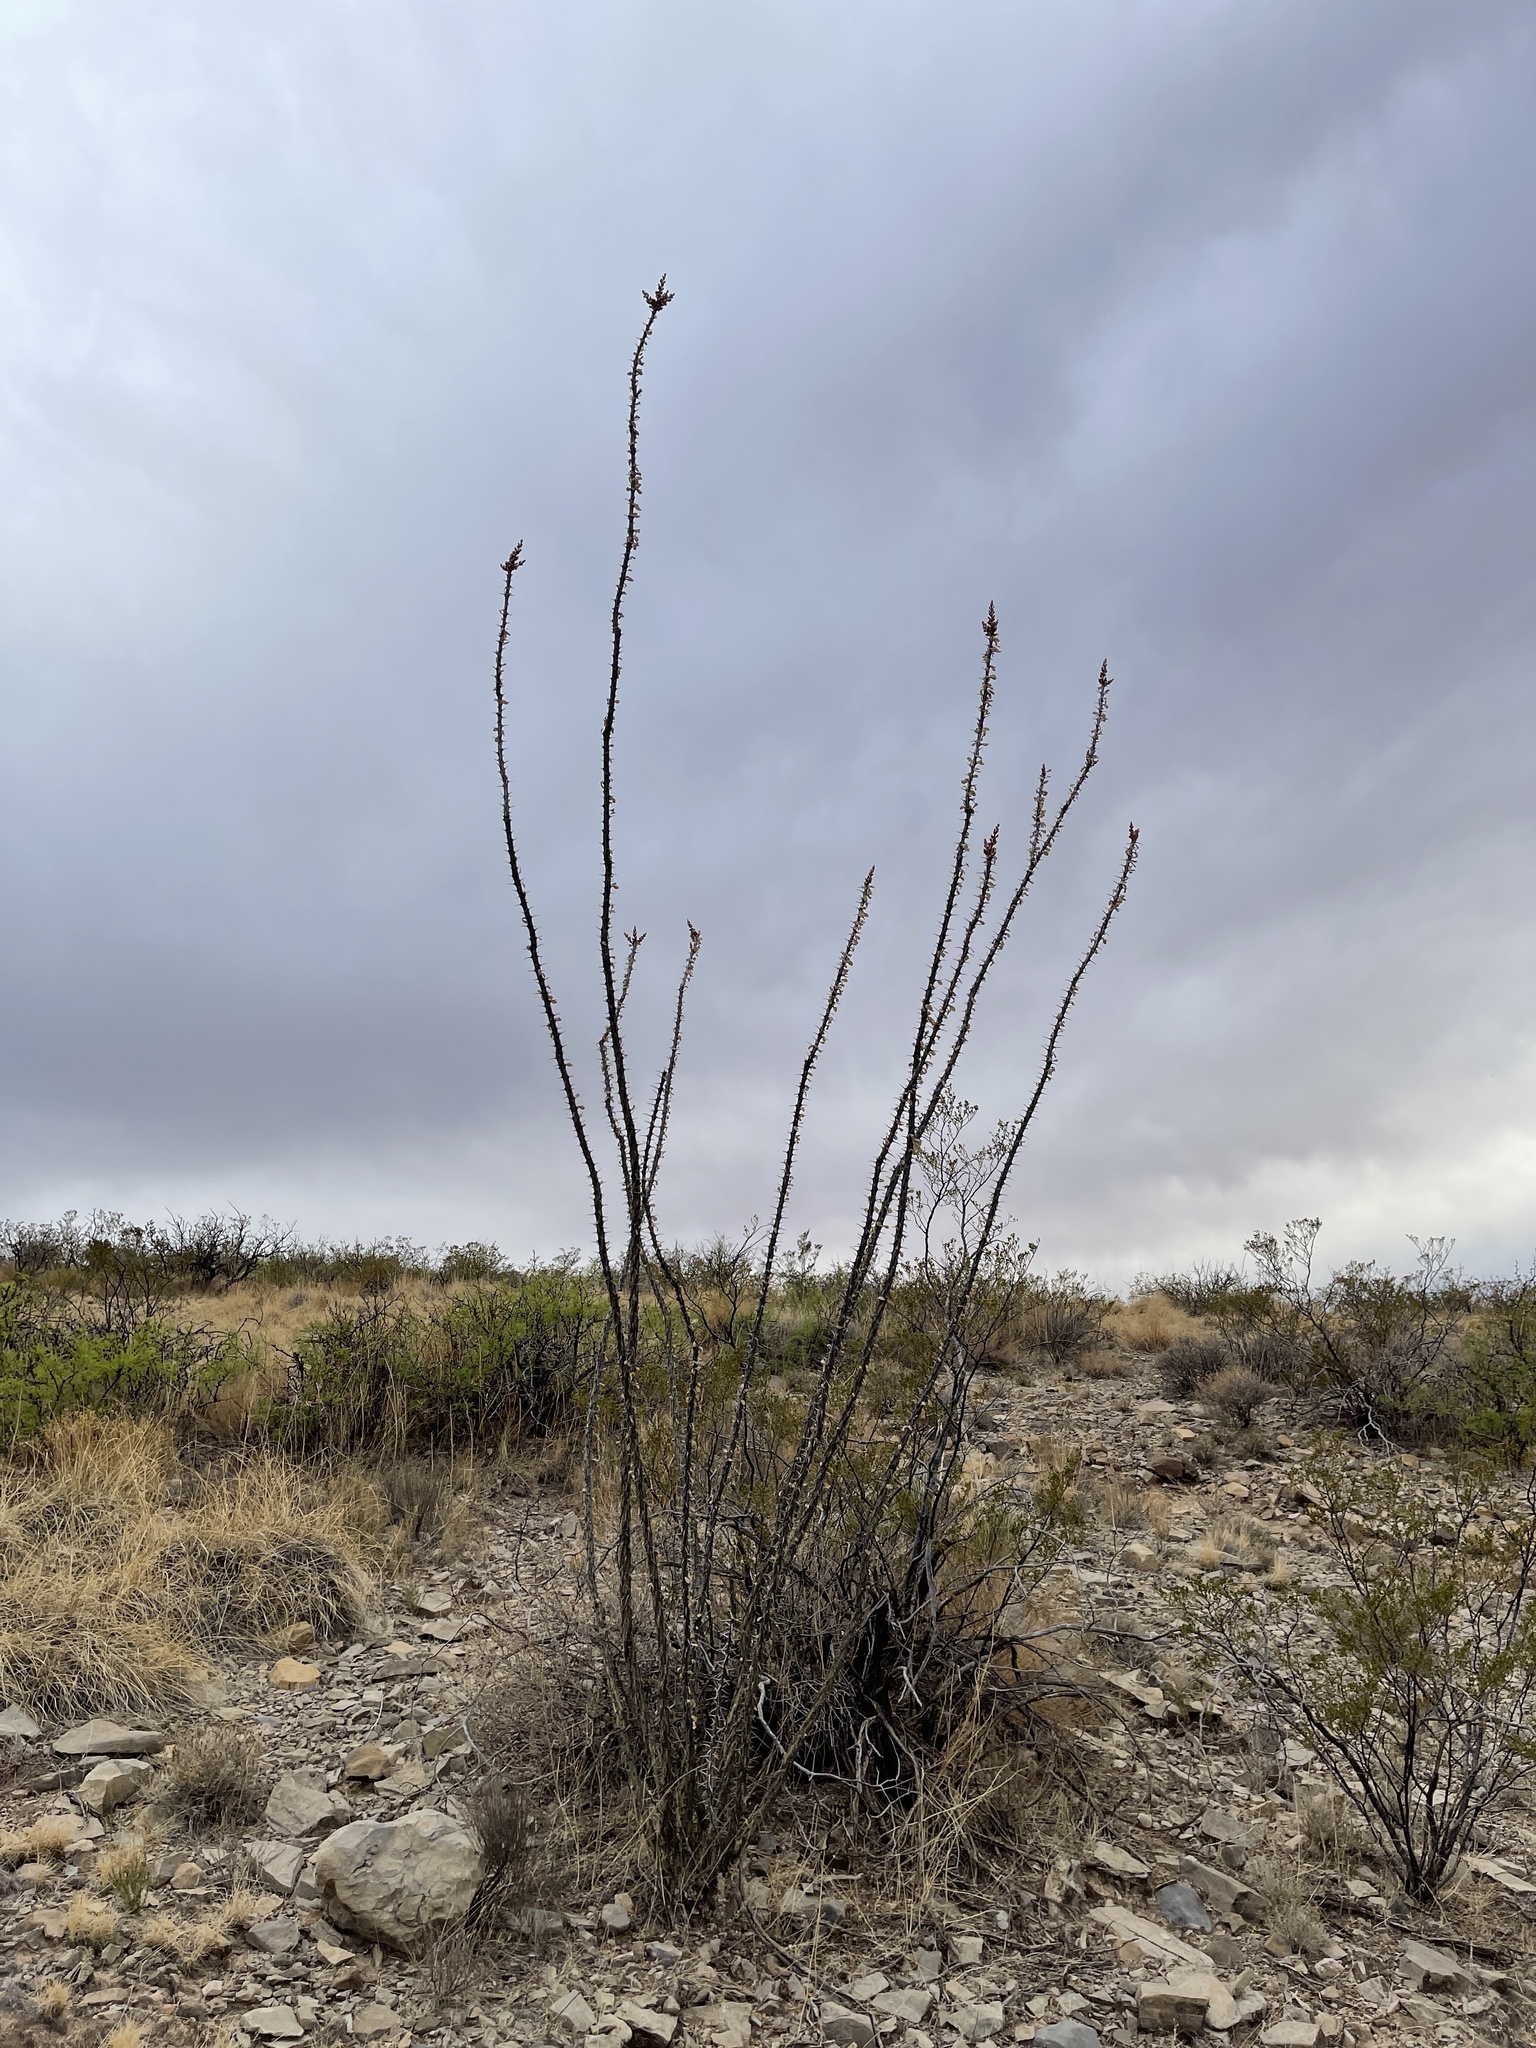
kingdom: Plantae
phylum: Tracheophyta
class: Magnoliopsida
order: Ericales
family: Fouquieriaceae
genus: Fouquieria
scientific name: Fouquieria splendens
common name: Vine-cactus
